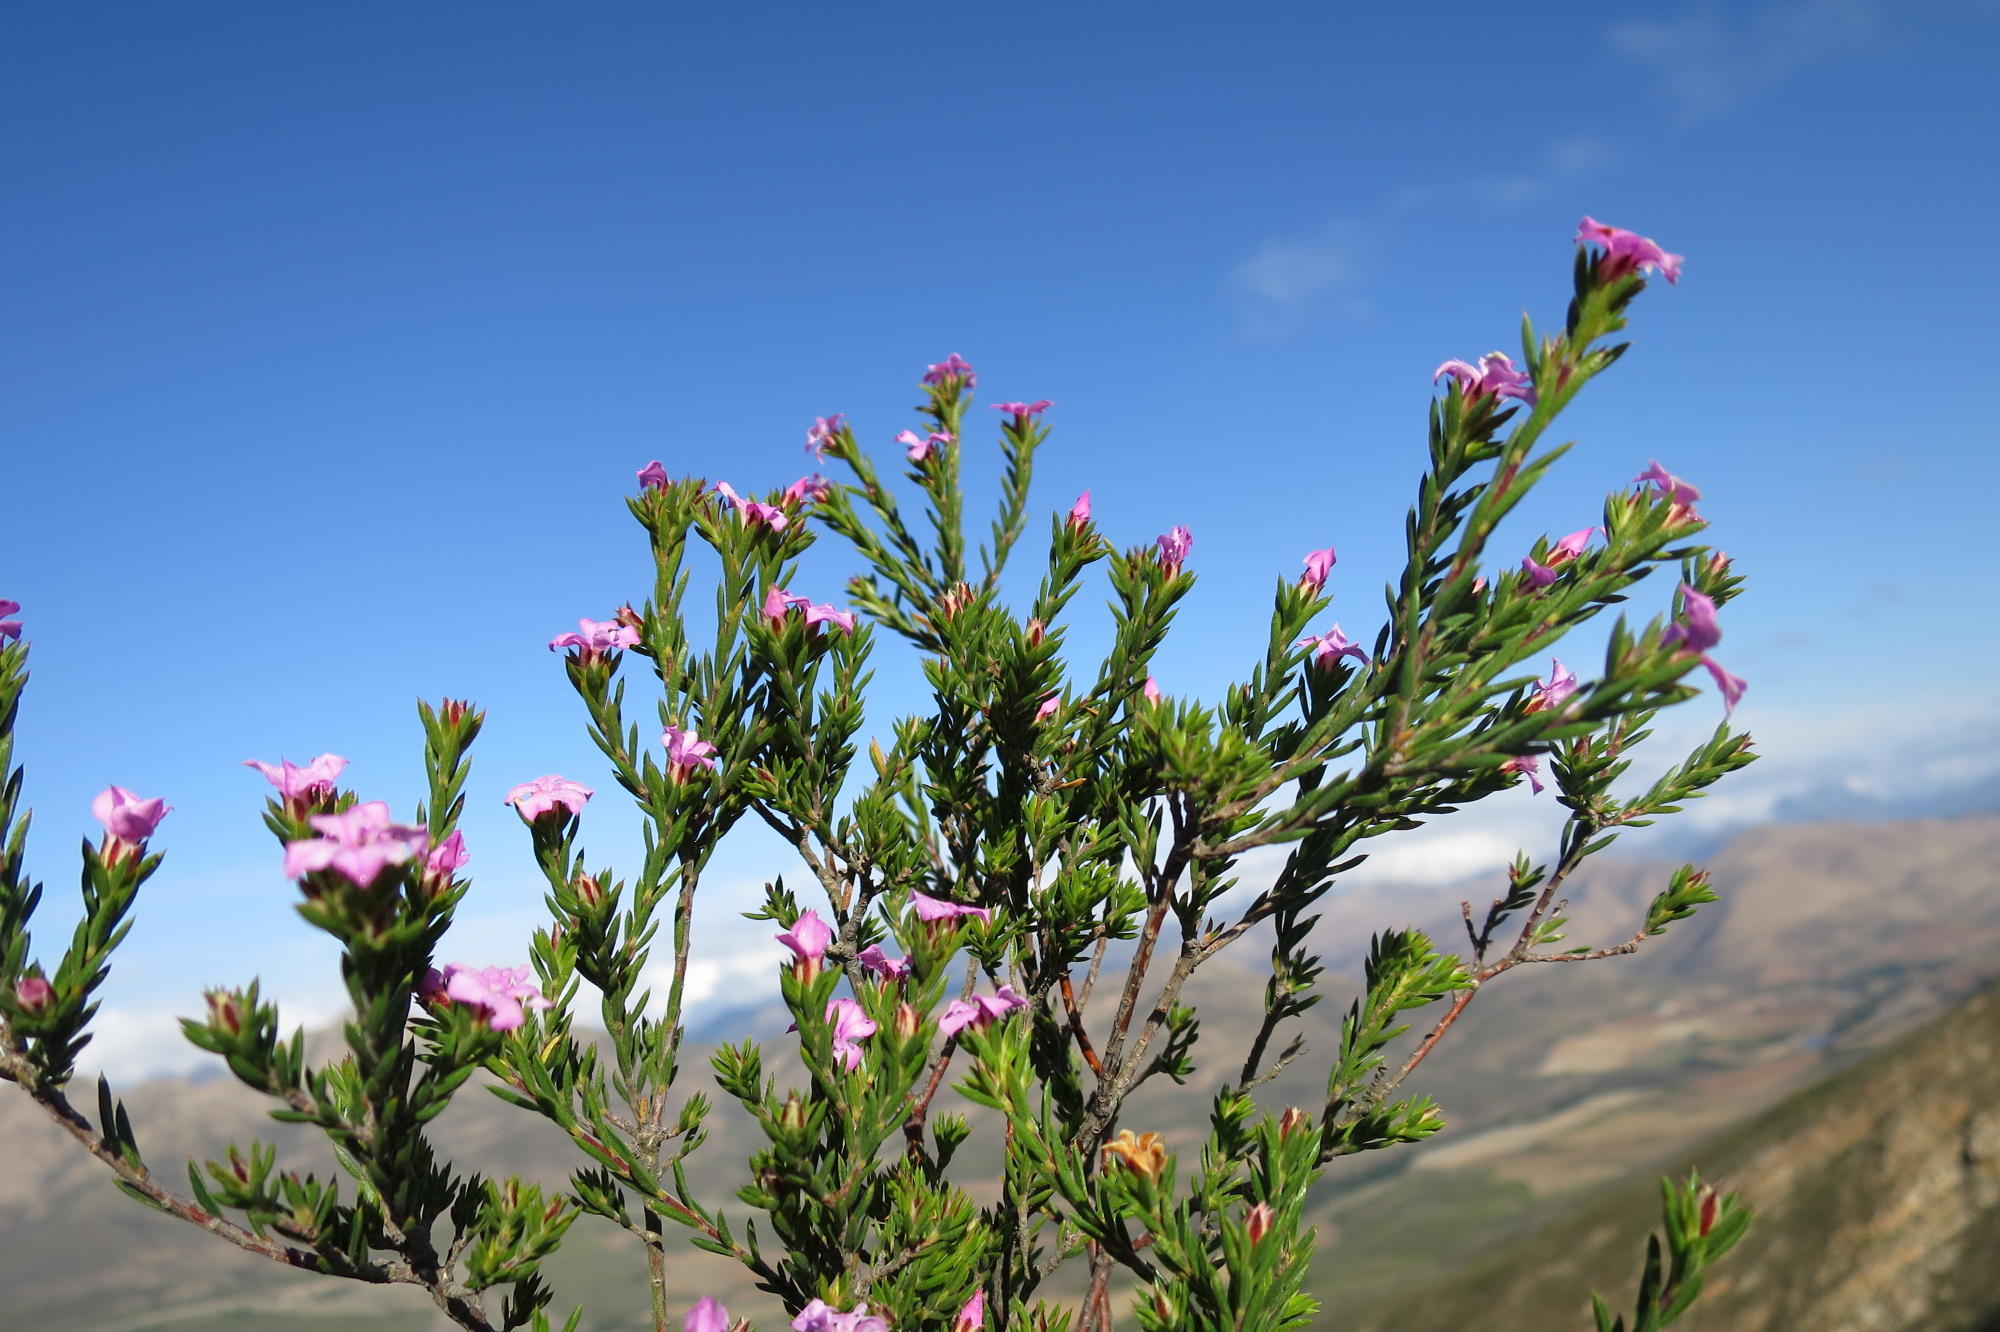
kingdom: Plantae
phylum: Tracheophyta
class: Magnoliopsida
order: Sapindales
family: Rutaceae
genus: Acmadenia
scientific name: Acmadenia maculata
